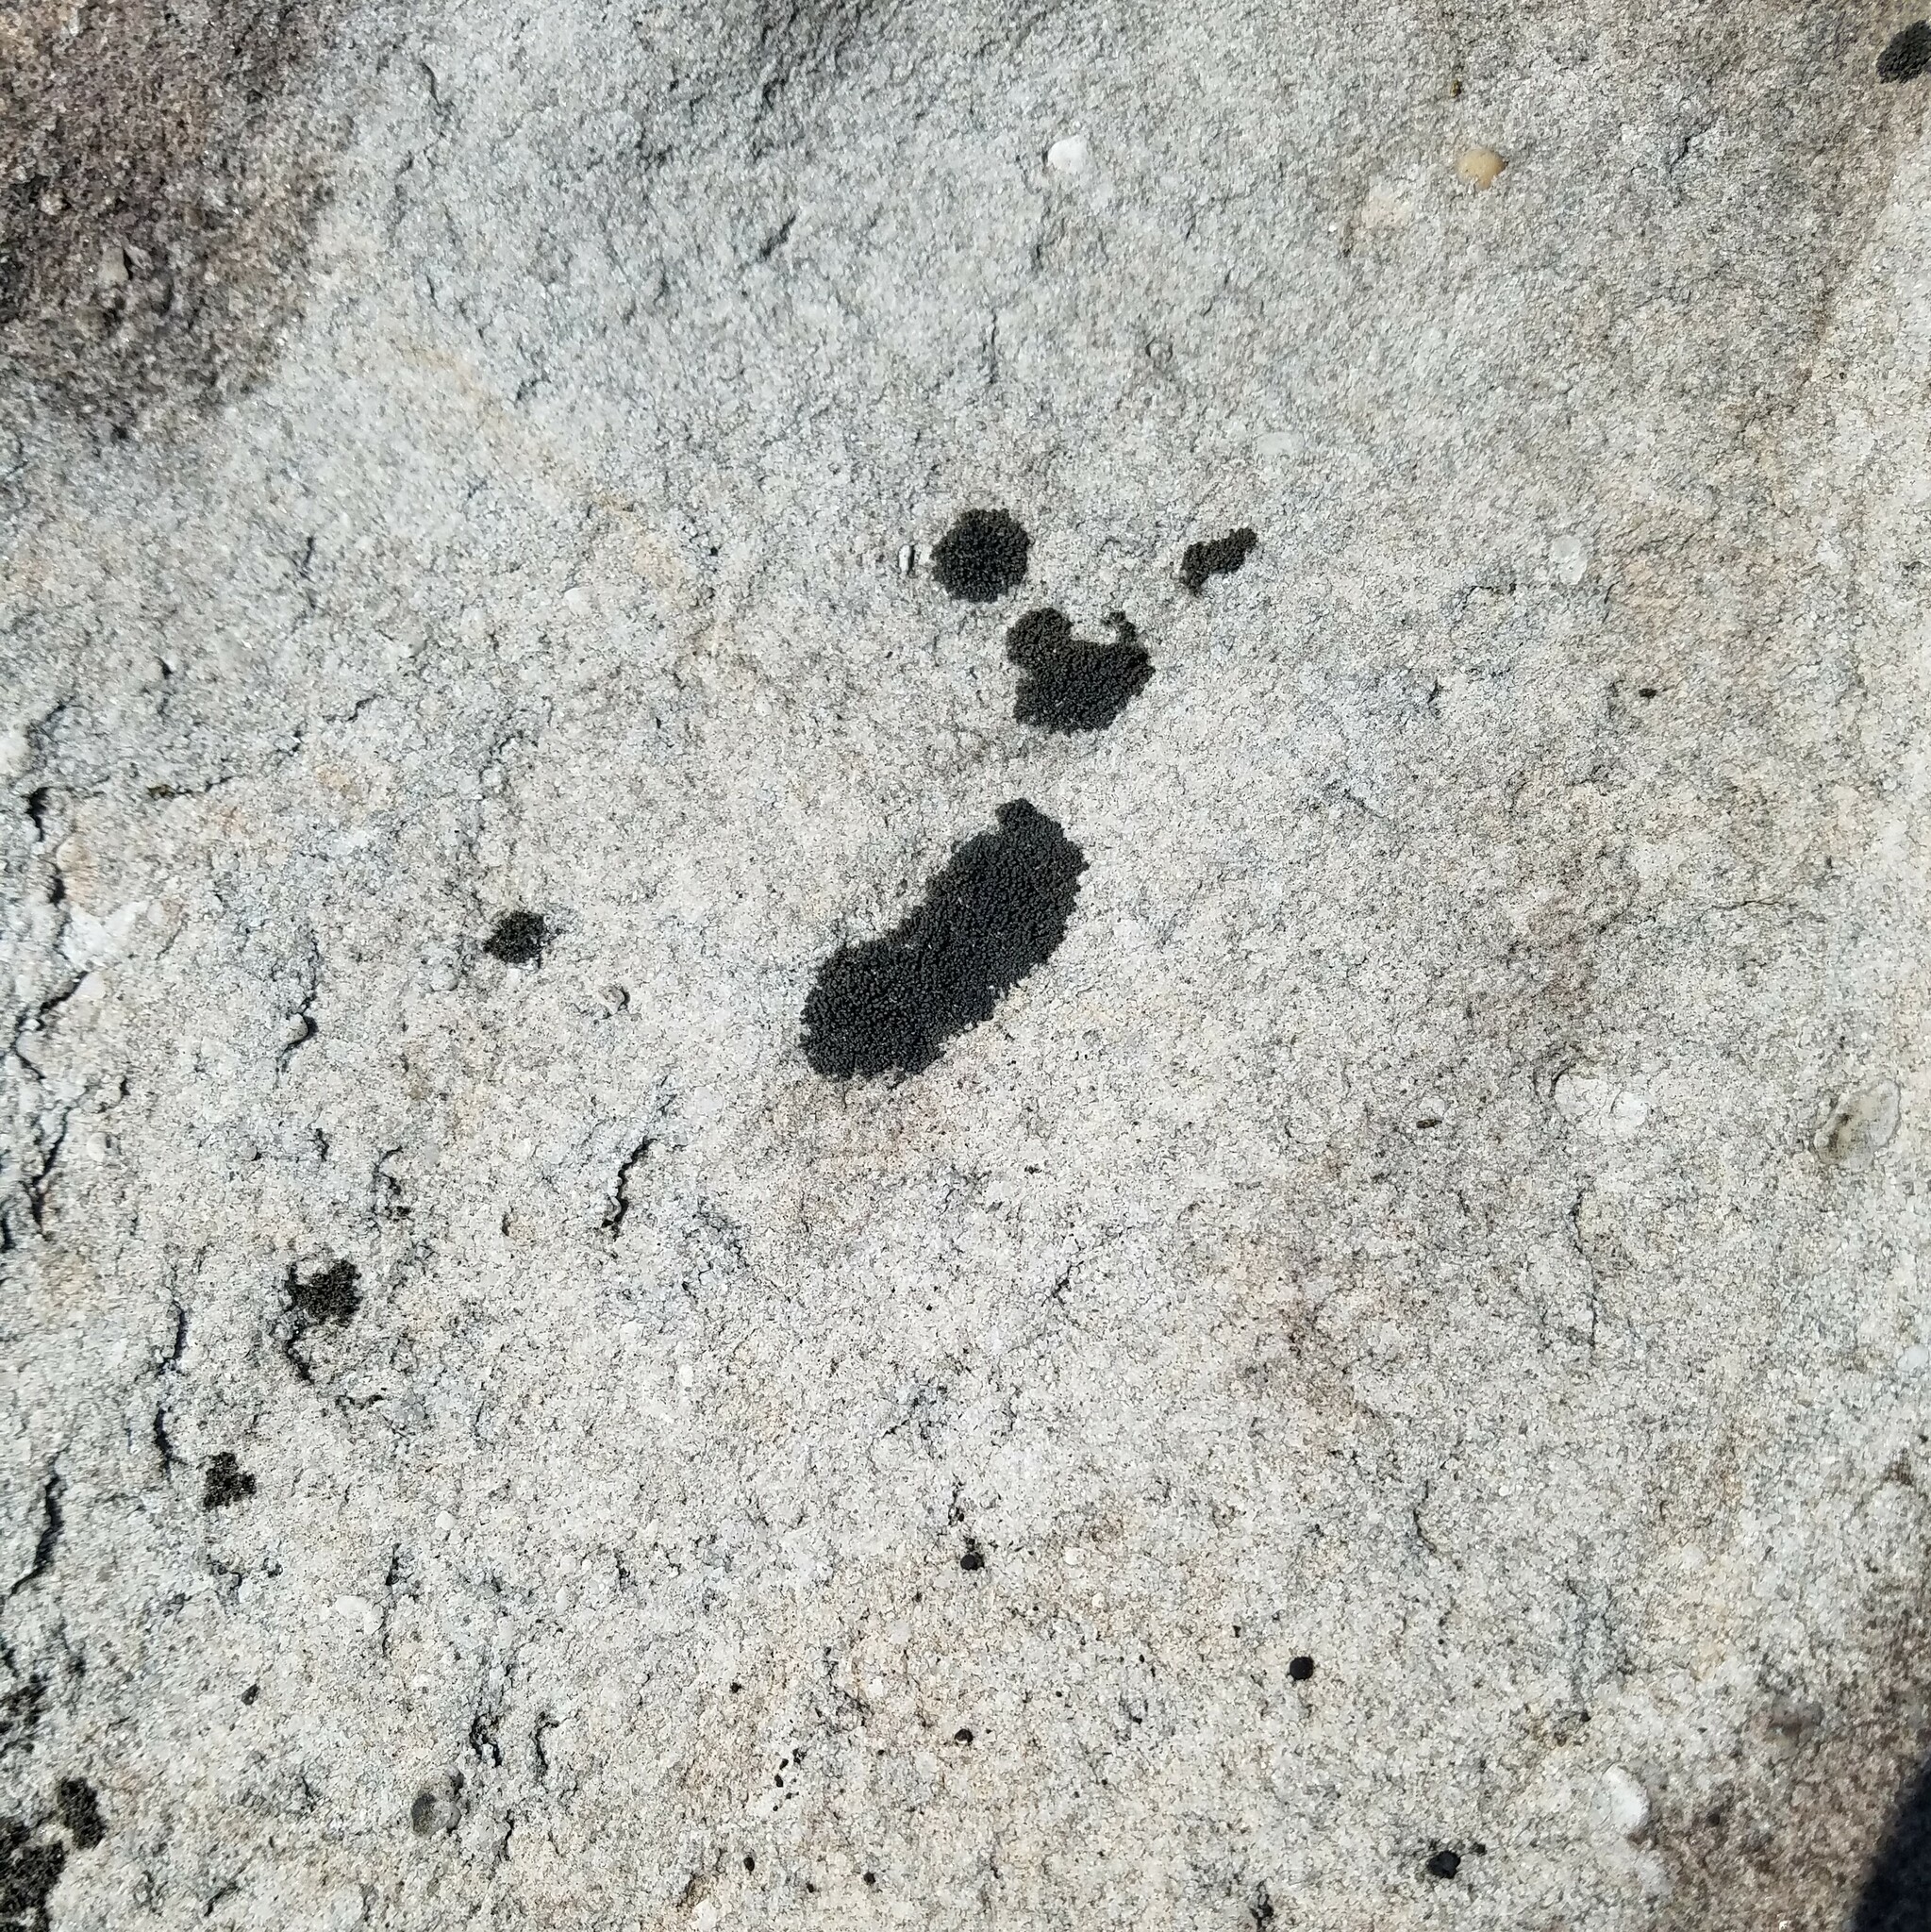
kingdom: Fungi
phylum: Ascomycota
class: Lichinomycetes
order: Lichinales
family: Peltulaceae
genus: Peltula
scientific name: Peltula cylindrica
